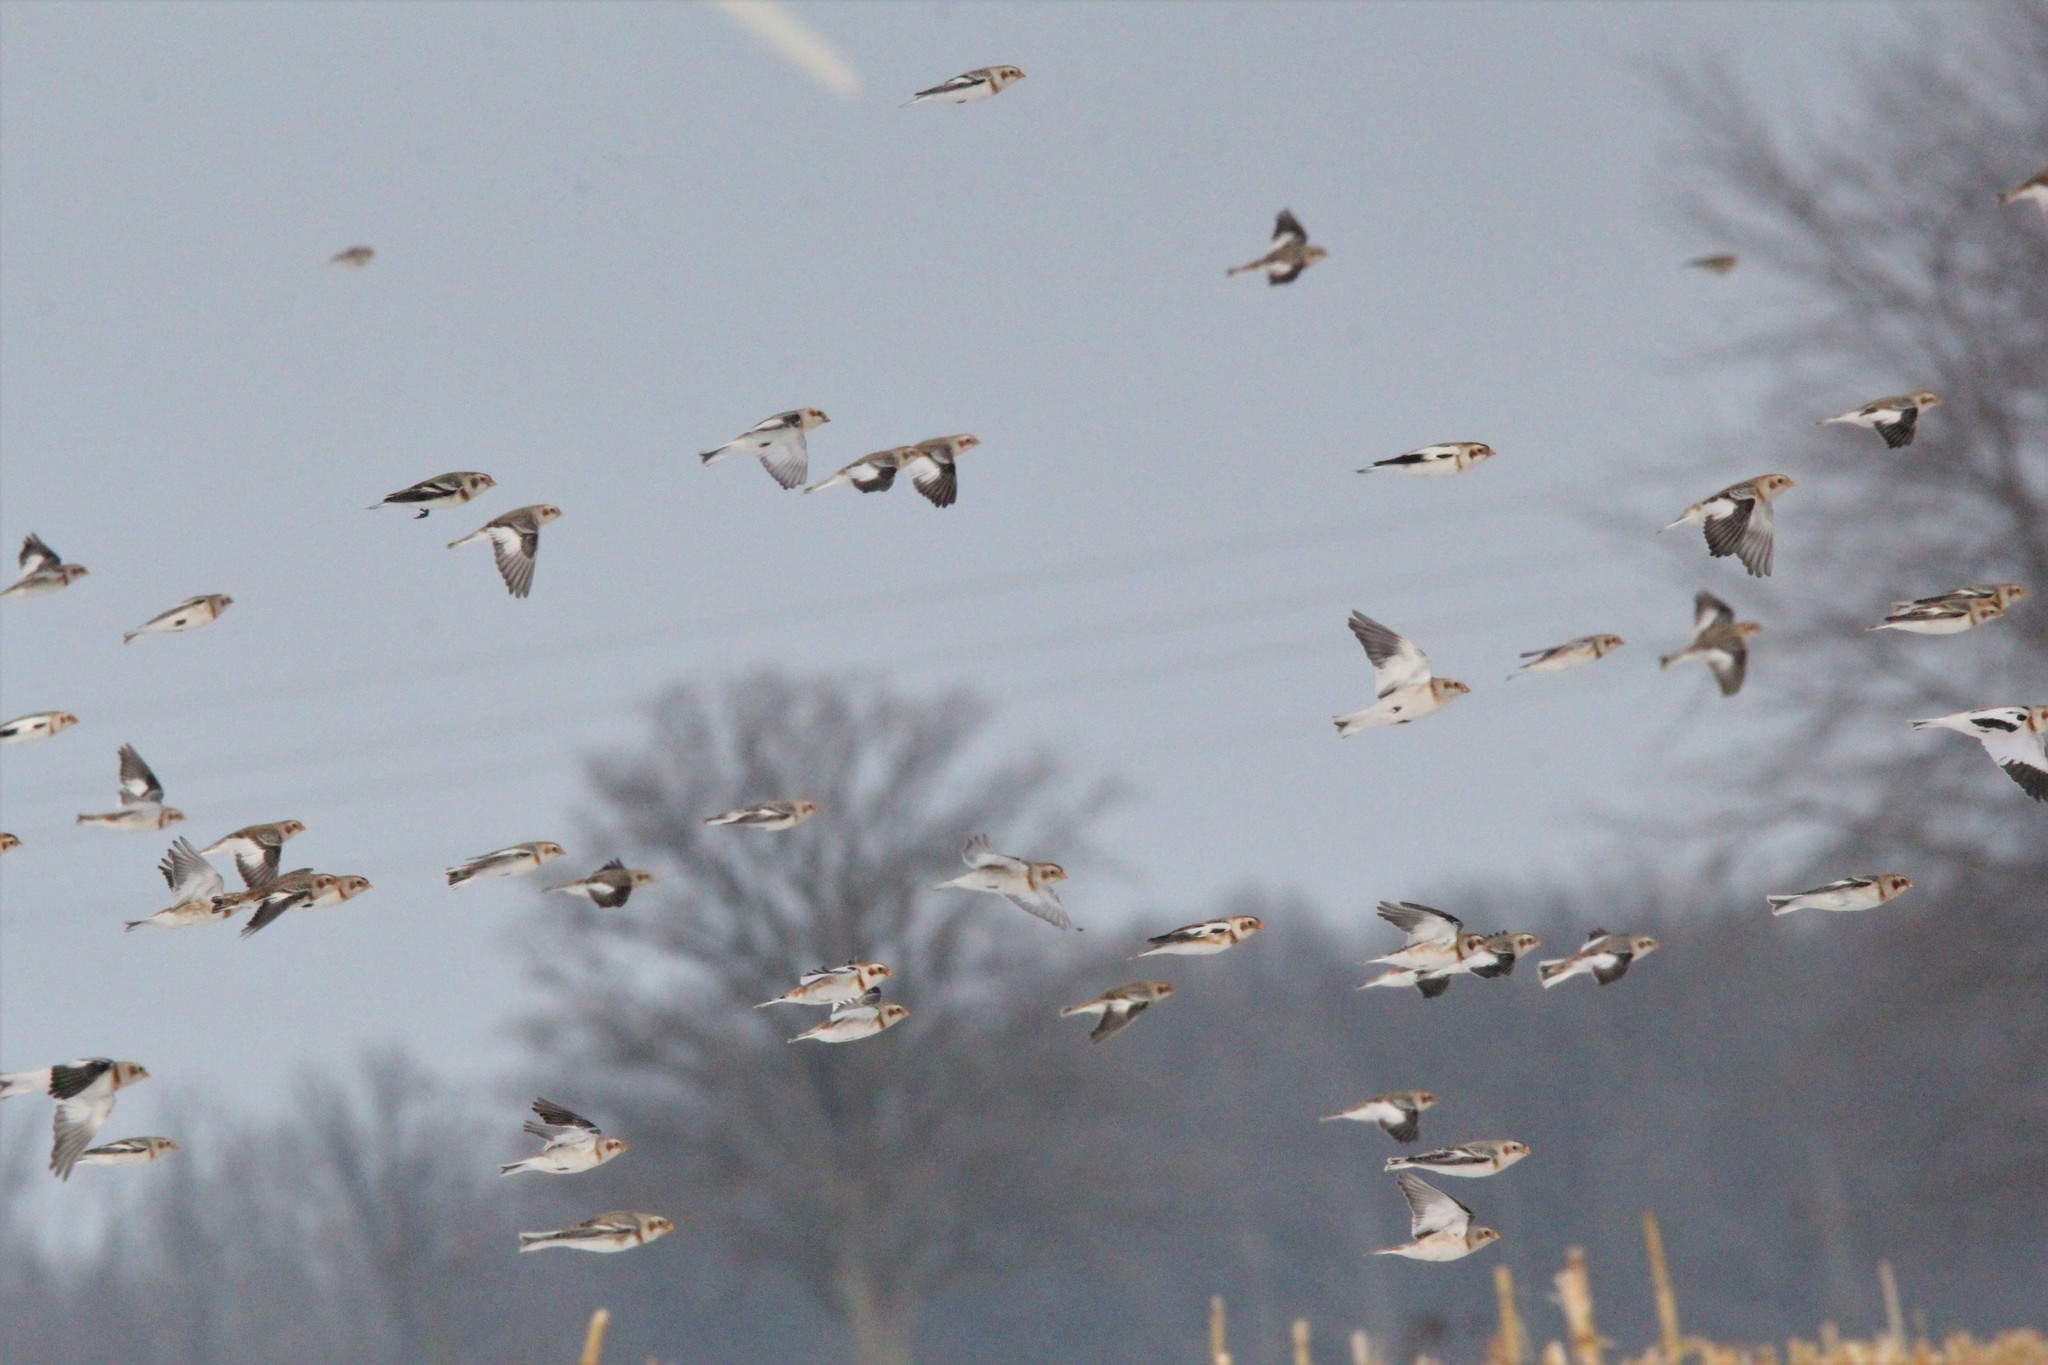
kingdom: Animalia
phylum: Chordata
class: Aves
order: Passeriformes
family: Calcariidae
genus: Plectrophenax
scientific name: Plectrophenax nivalis
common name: Snow bunting
